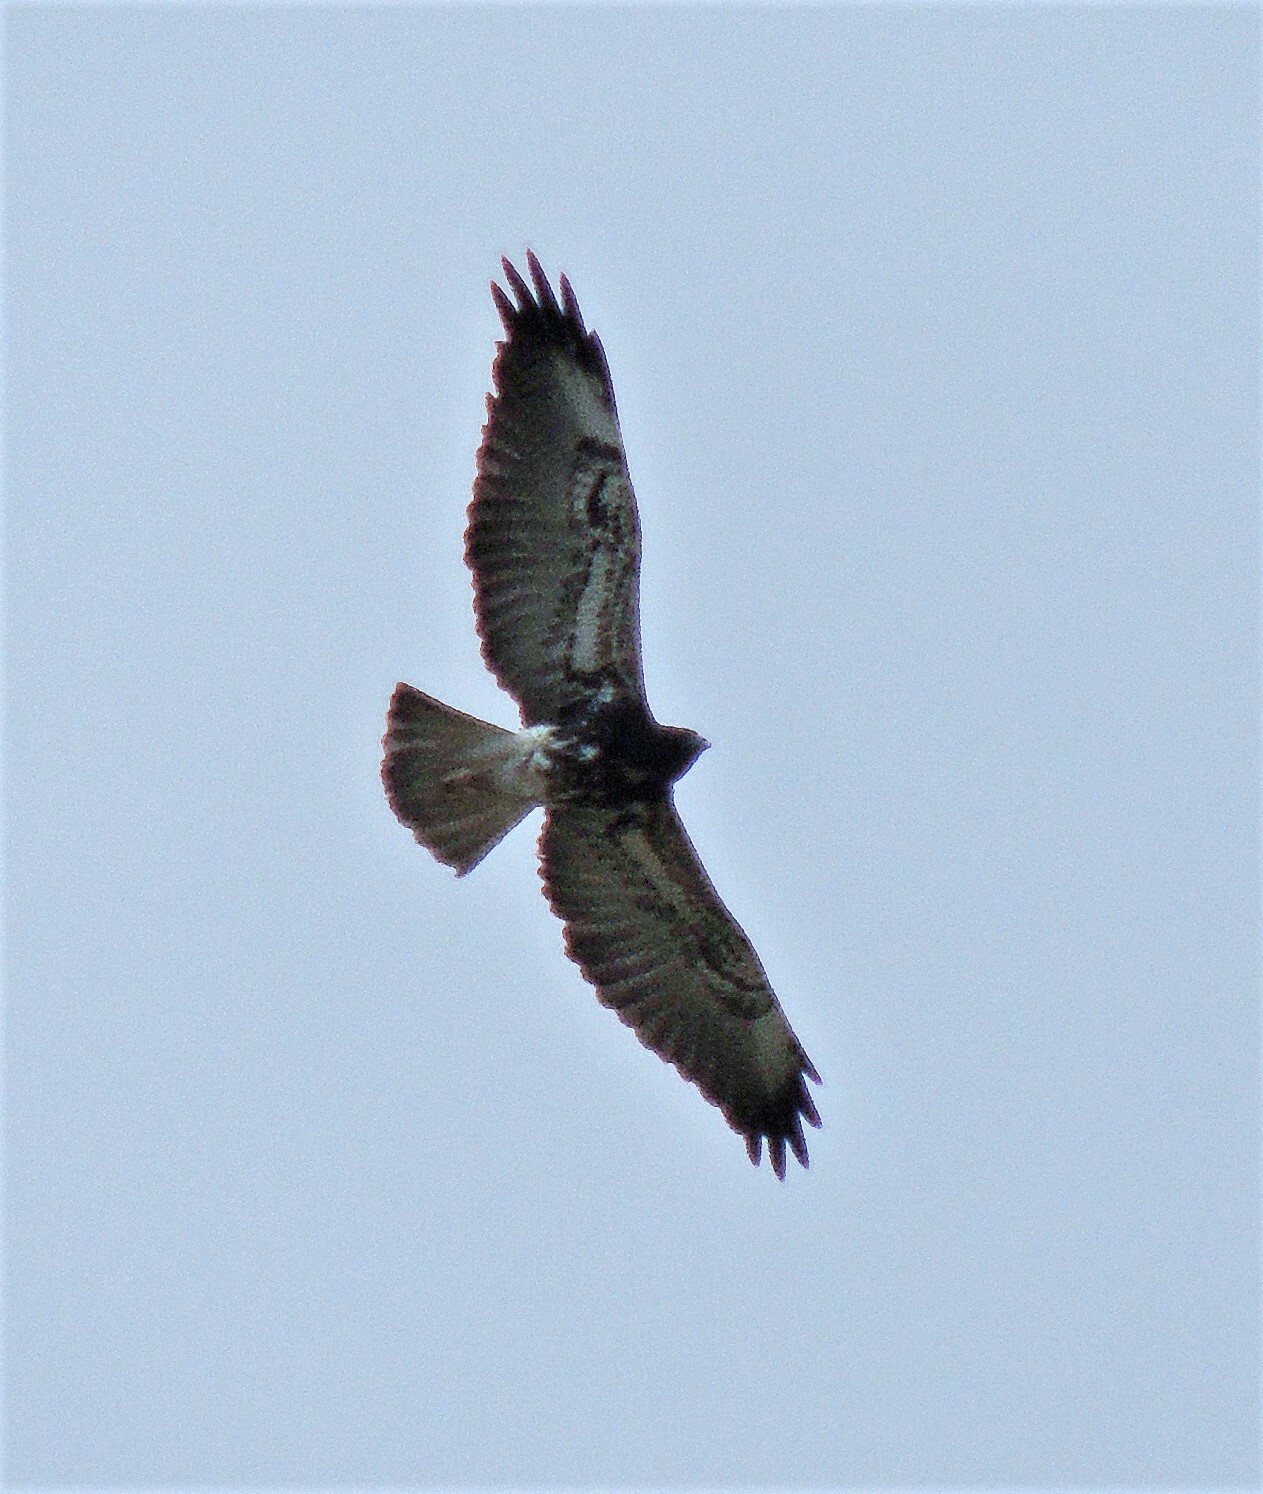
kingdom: Animalia
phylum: Chordata
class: Aves
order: Accipitriformes
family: Accipitridae
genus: Buteo
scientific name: Buteo albicaudatus
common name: White-tailed hawk
